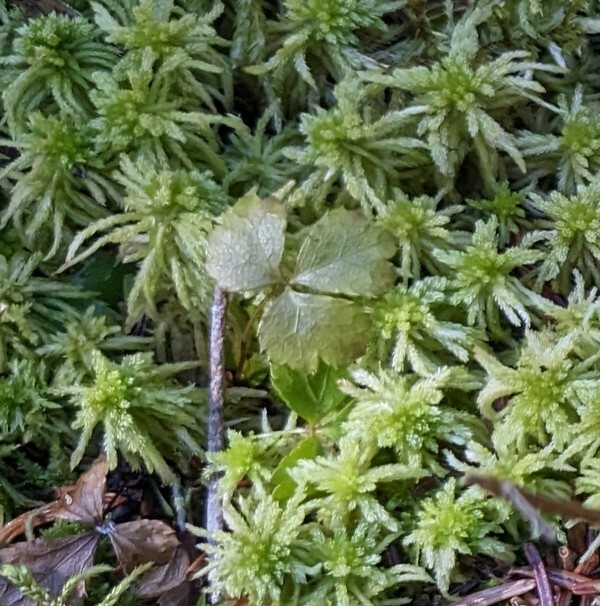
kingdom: Plantae
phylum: Tracheophyta
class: Magnoliopsida
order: Ranunculales
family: Ranunculaceae
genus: Coptis
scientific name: Coptis trifolia
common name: Canker-root
